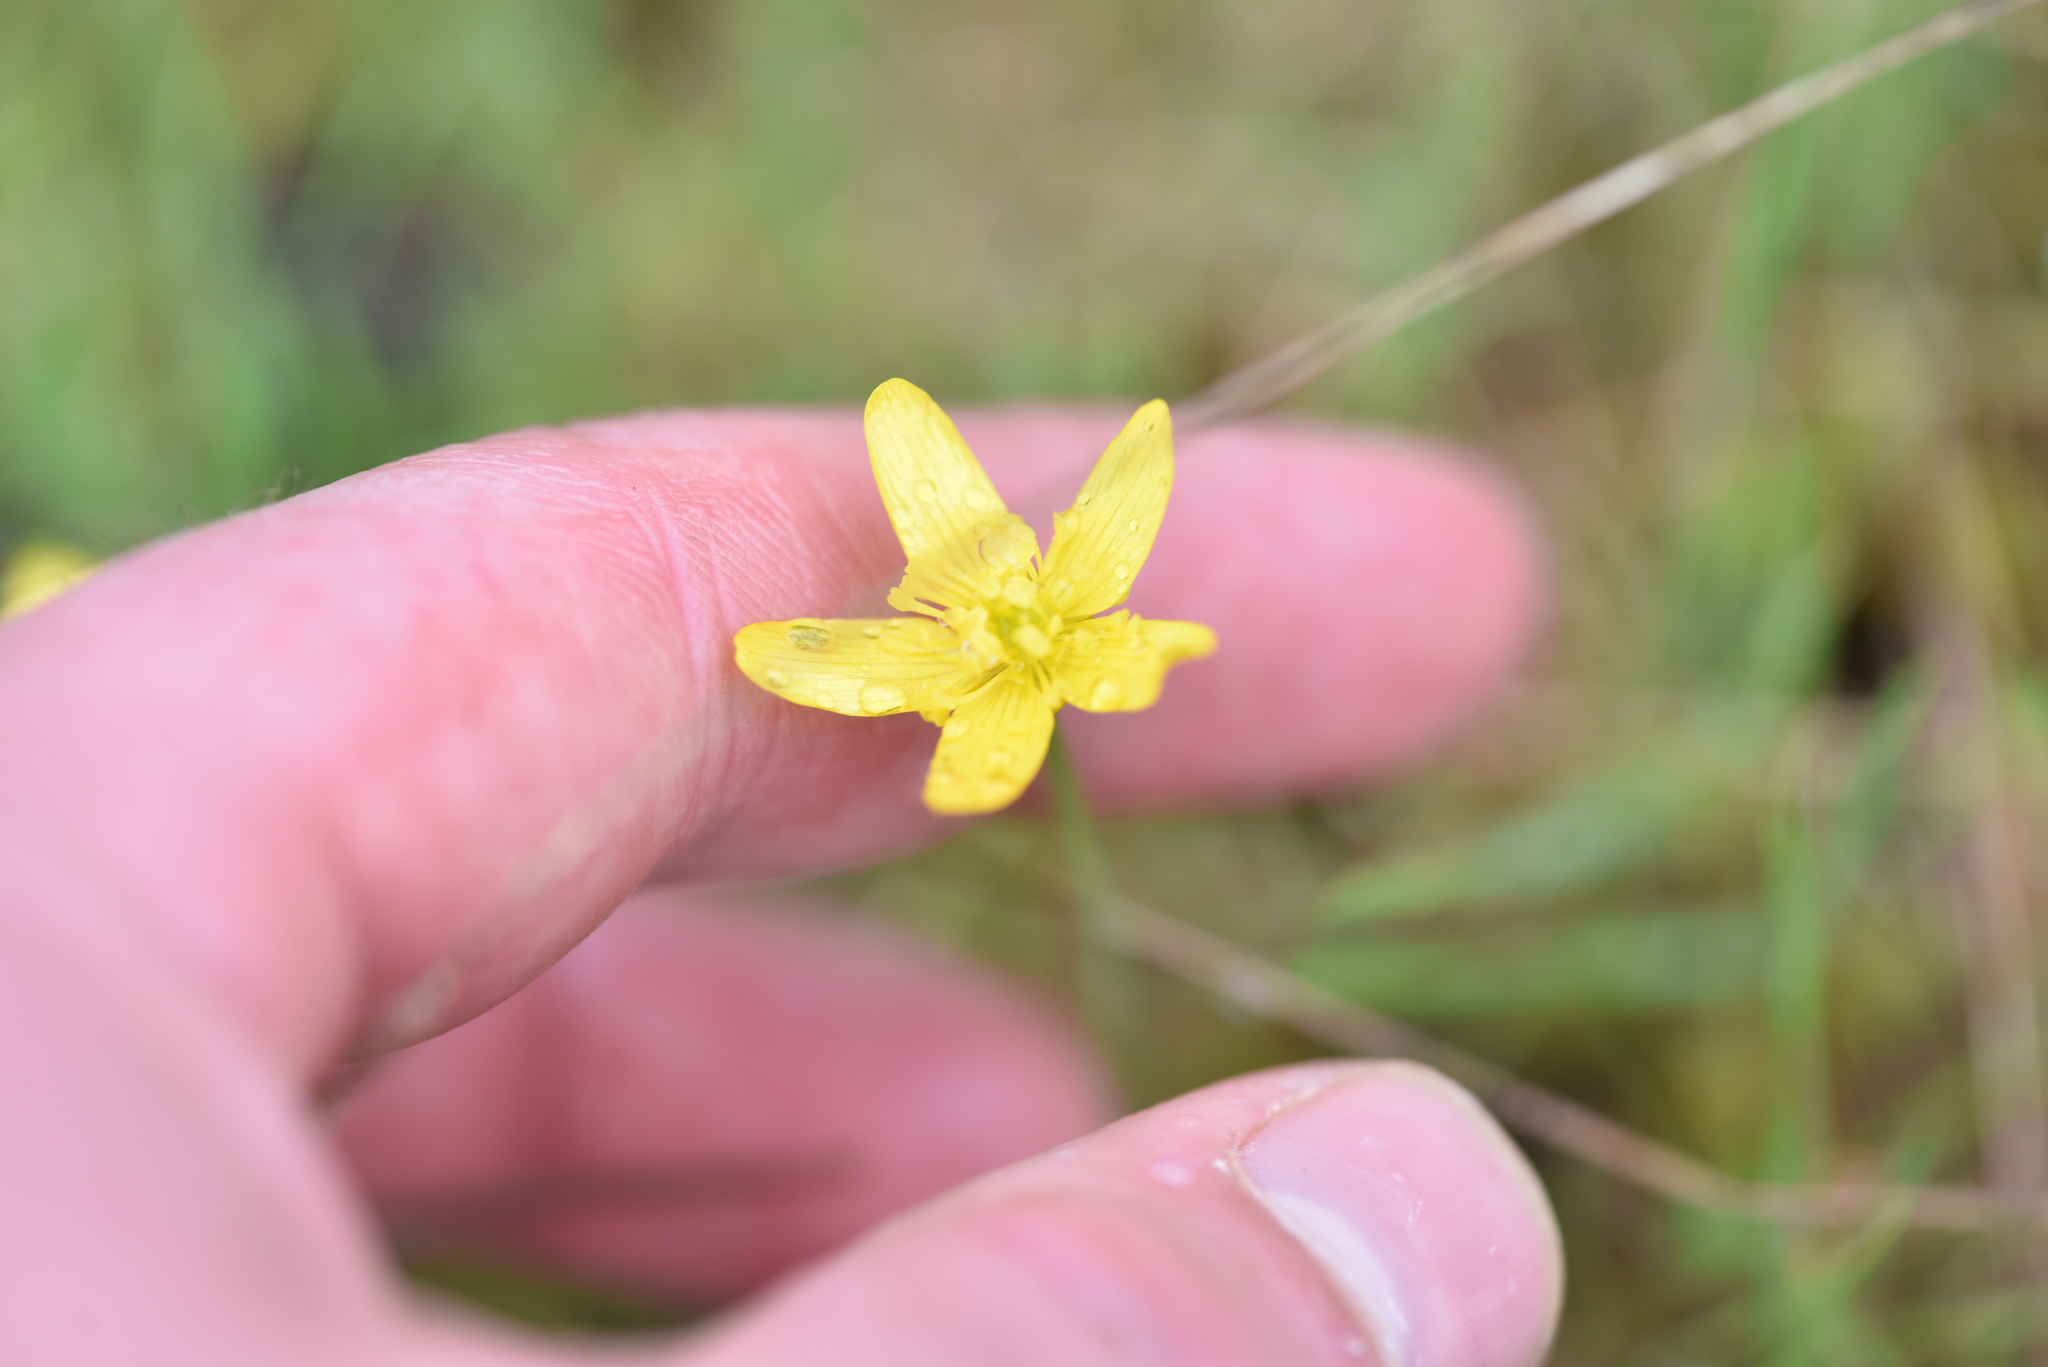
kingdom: Plantae
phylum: Tracheophyta
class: Magnoliopsida
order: Ranunculales
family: Ranunculaceae
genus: Ranunculus
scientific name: Ranunculus occidentalis
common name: Western buttercup
